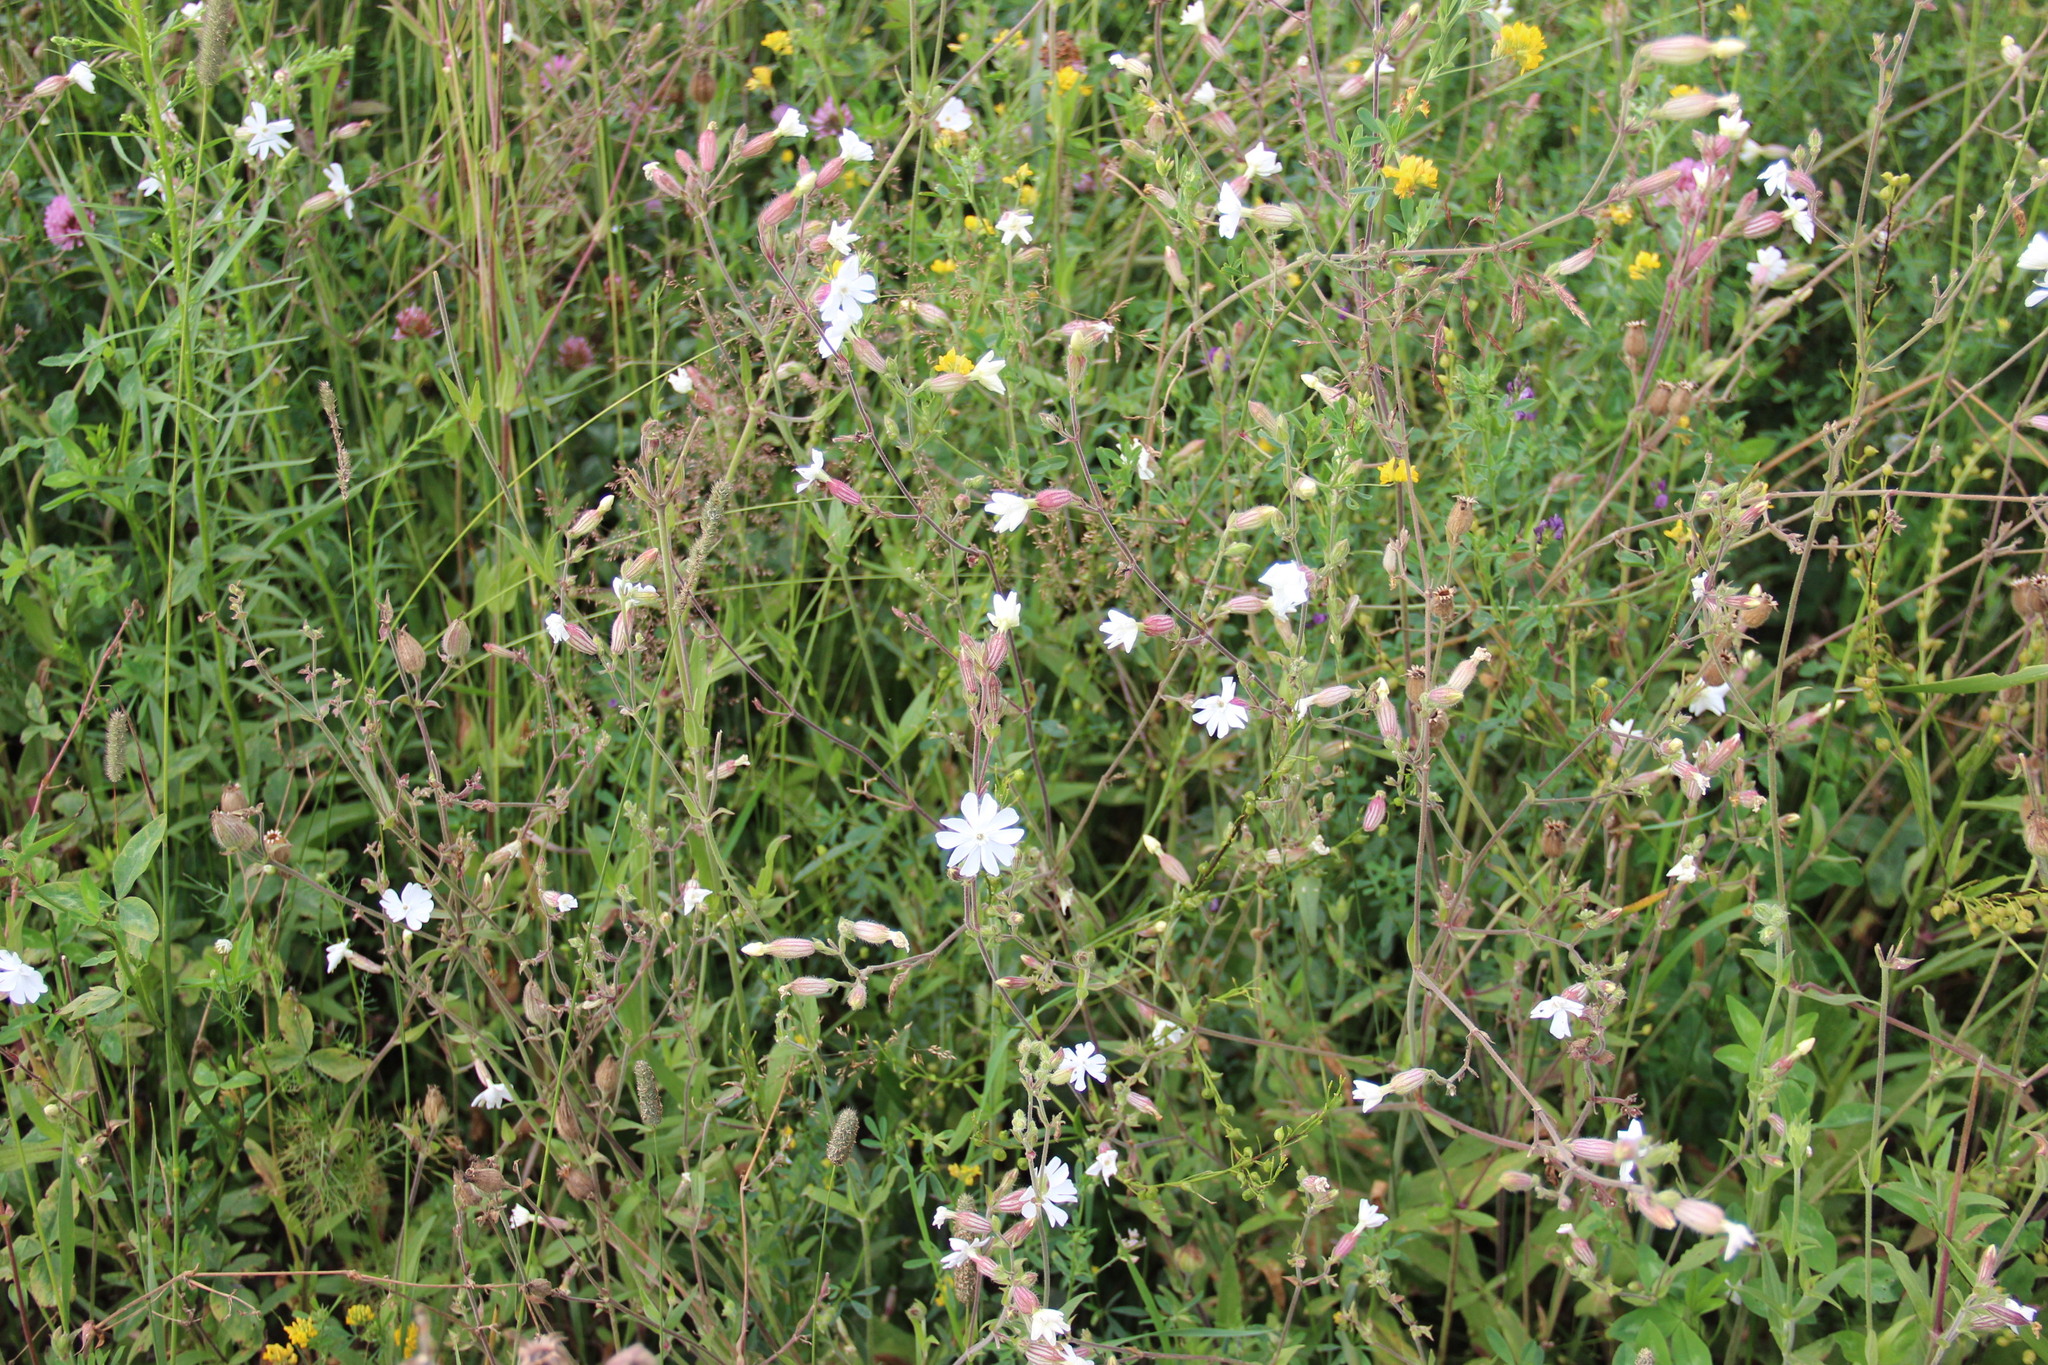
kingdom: Plantae
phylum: Tracheophyta
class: Magnoliopsida
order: Caryophyllales
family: Caryophyllaceae
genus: Silene
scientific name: Silene latifolia
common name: White campion
